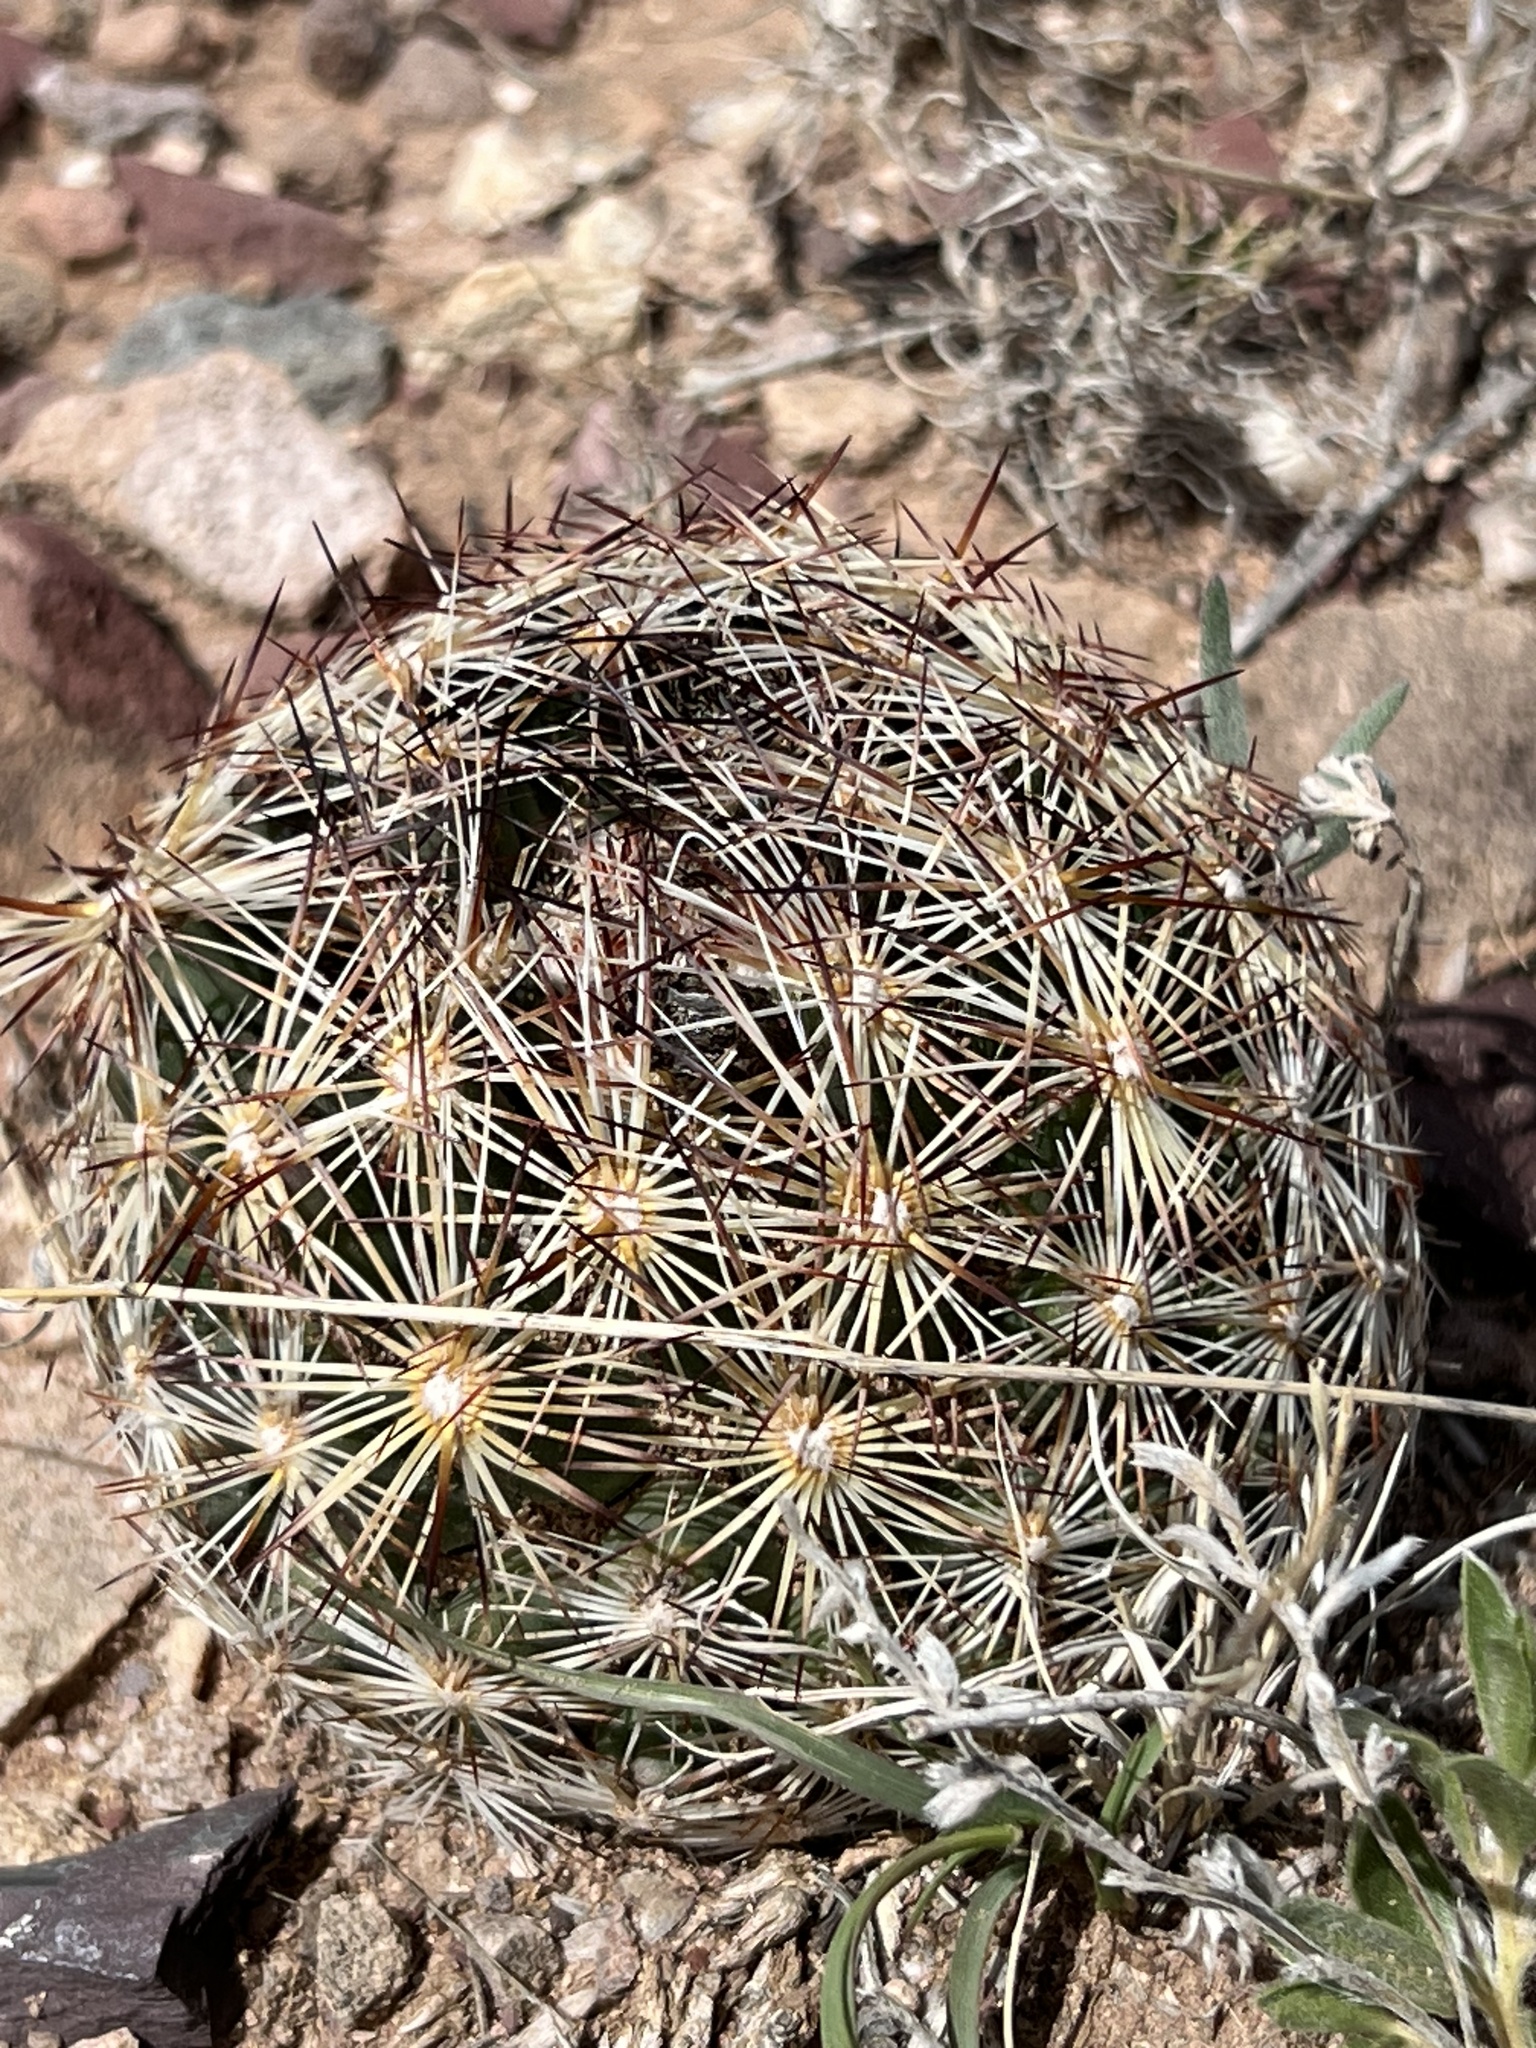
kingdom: Plantae
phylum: Tracheophyta
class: Magnoliopsida
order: Caryophyllales
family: Cactaceae
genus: Pelecyphora
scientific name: Pelecyphora vivipara
